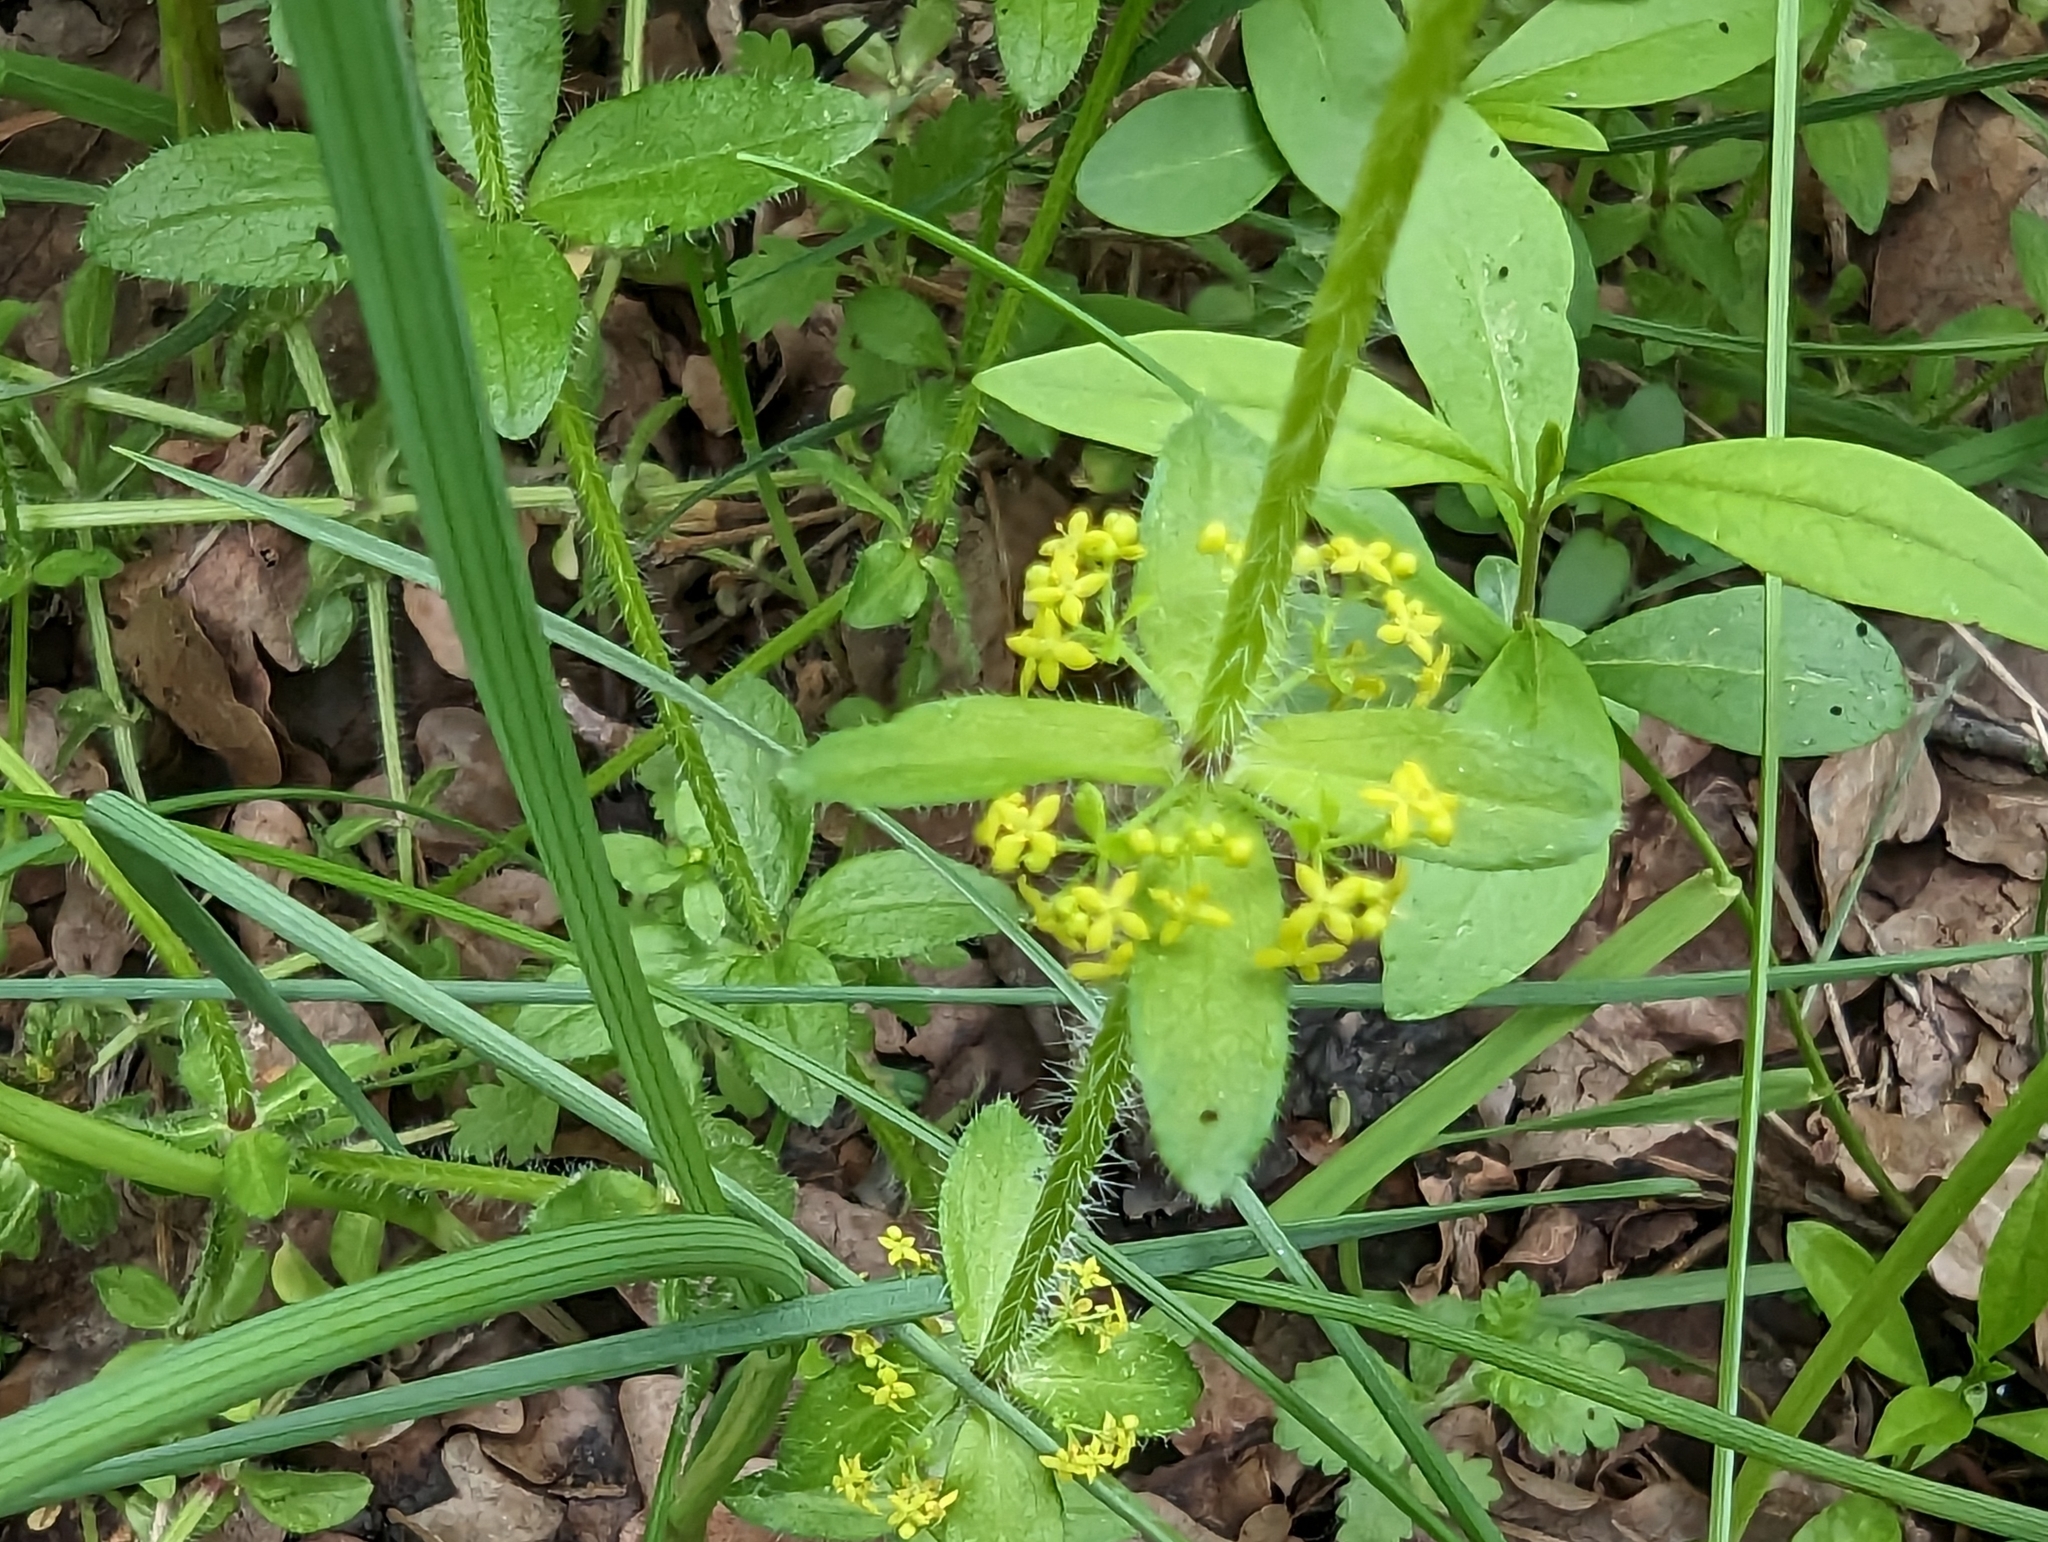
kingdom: Plantae
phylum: Tracheophyta
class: Magnoliopsida
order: Gentianales
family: Rubiaceae
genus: Cruciata
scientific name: Cruciata laevipes
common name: Crosswort
